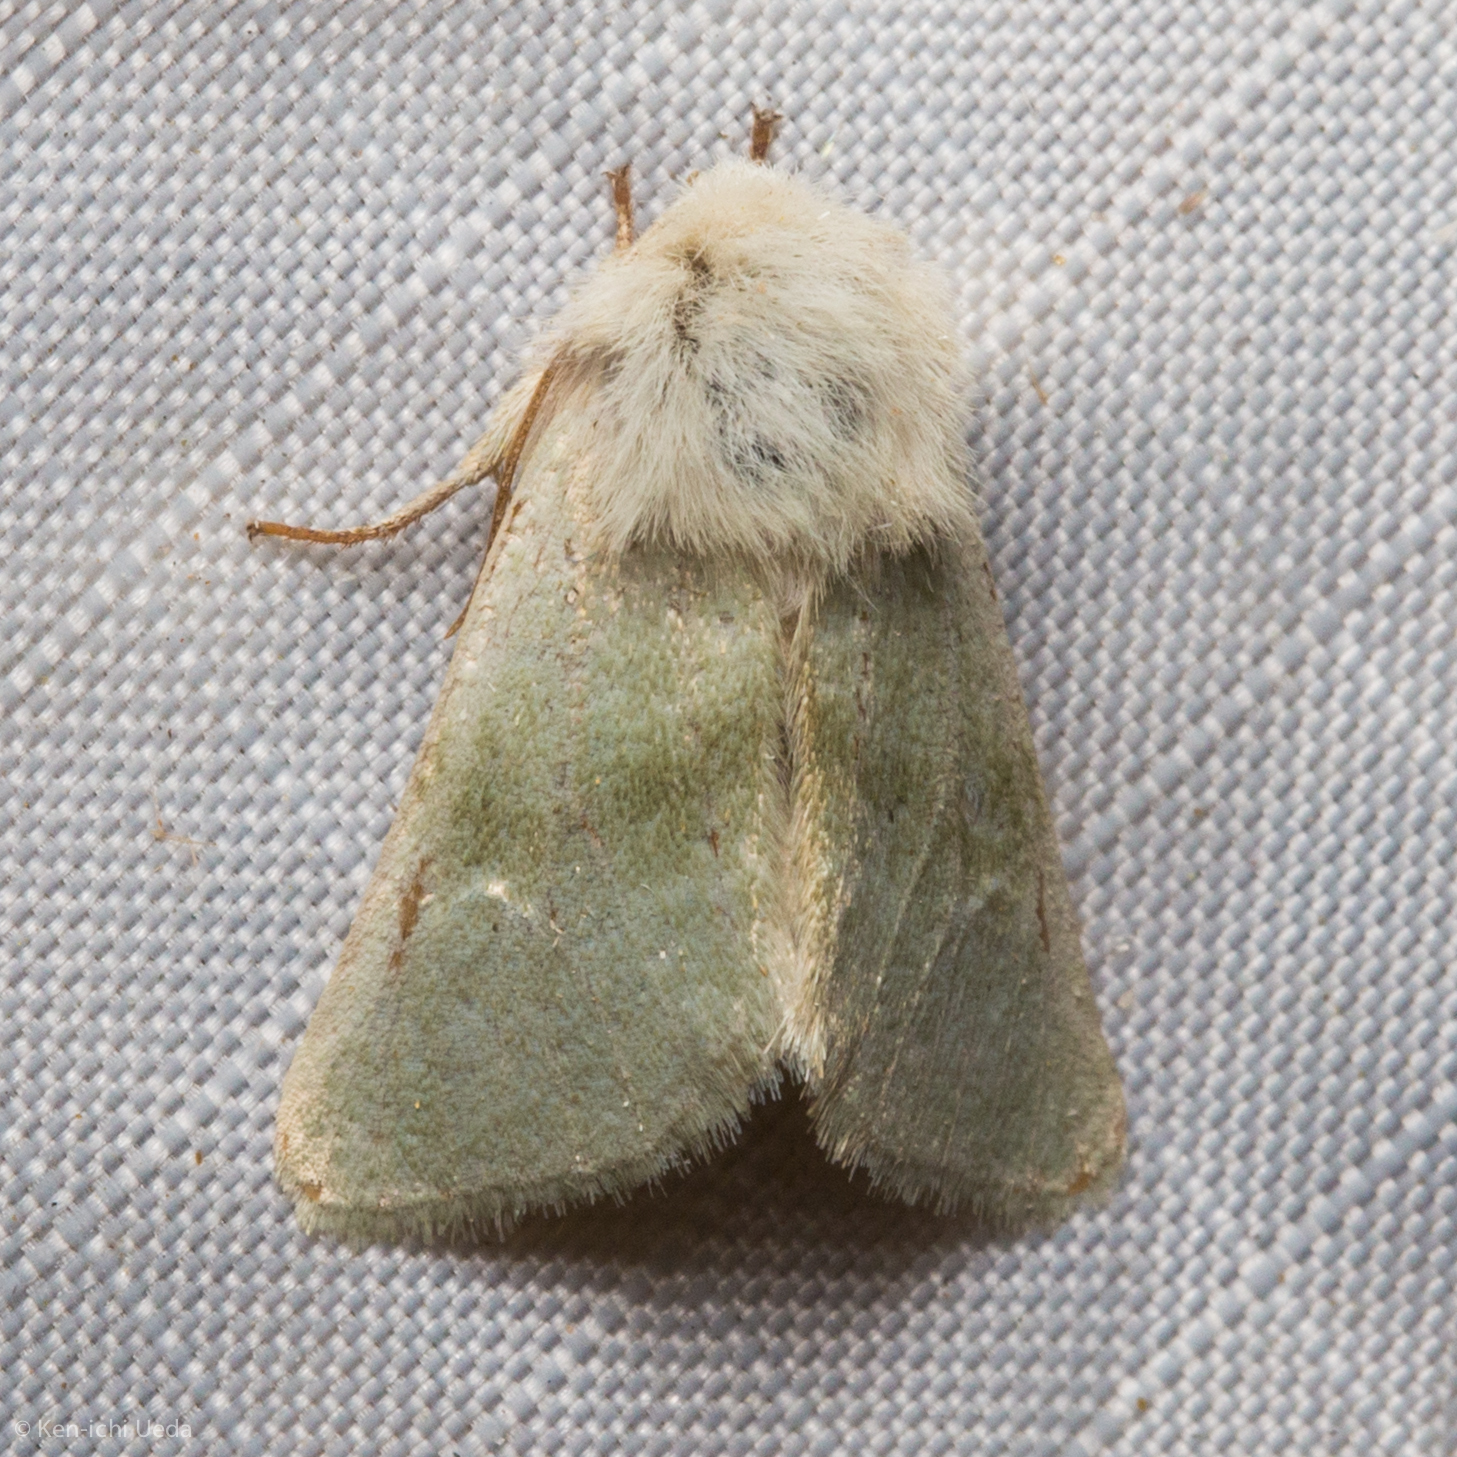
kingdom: Animalia
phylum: Arthropoda
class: Insecta
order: Lepidoptera
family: Noctuidae
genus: Nocloa
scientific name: Nocloa pallens
